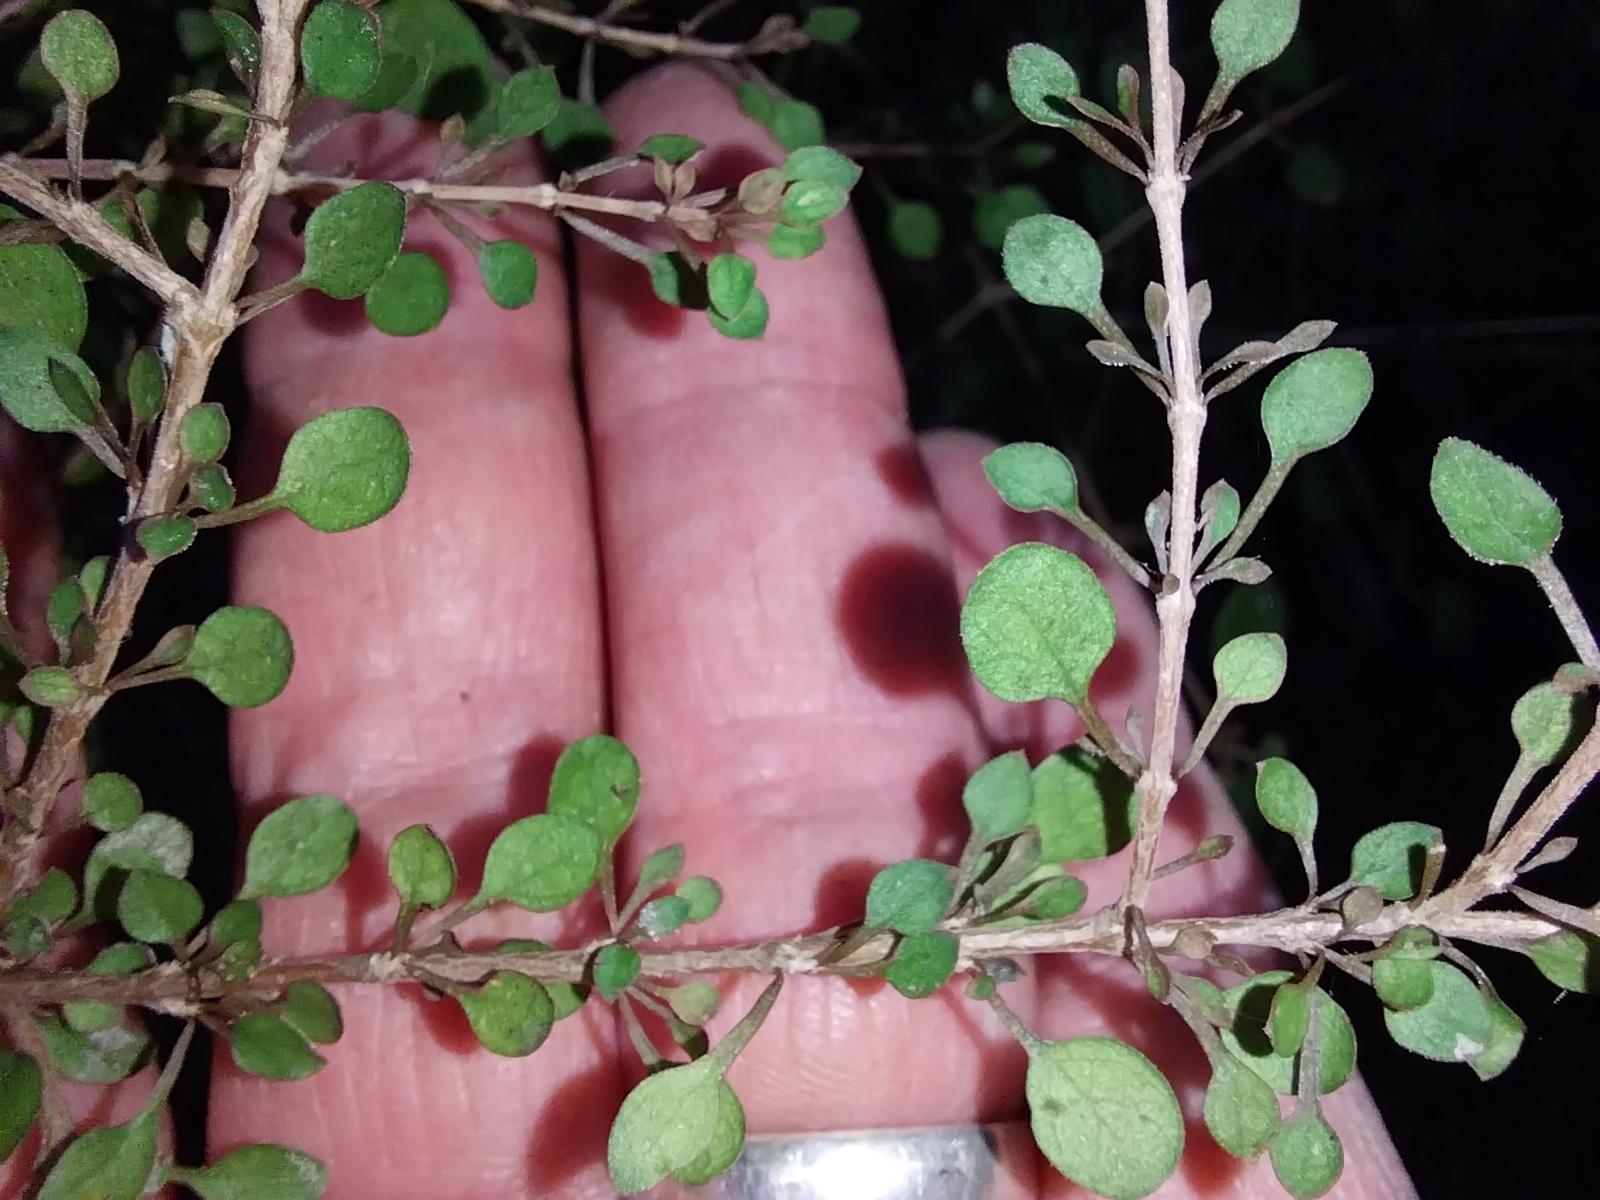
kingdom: Plantae
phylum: Tracheophyta
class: Magnoliopsida
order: Gentianales
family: Rubiaceae
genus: Coprosma
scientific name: Coprosma virescens
